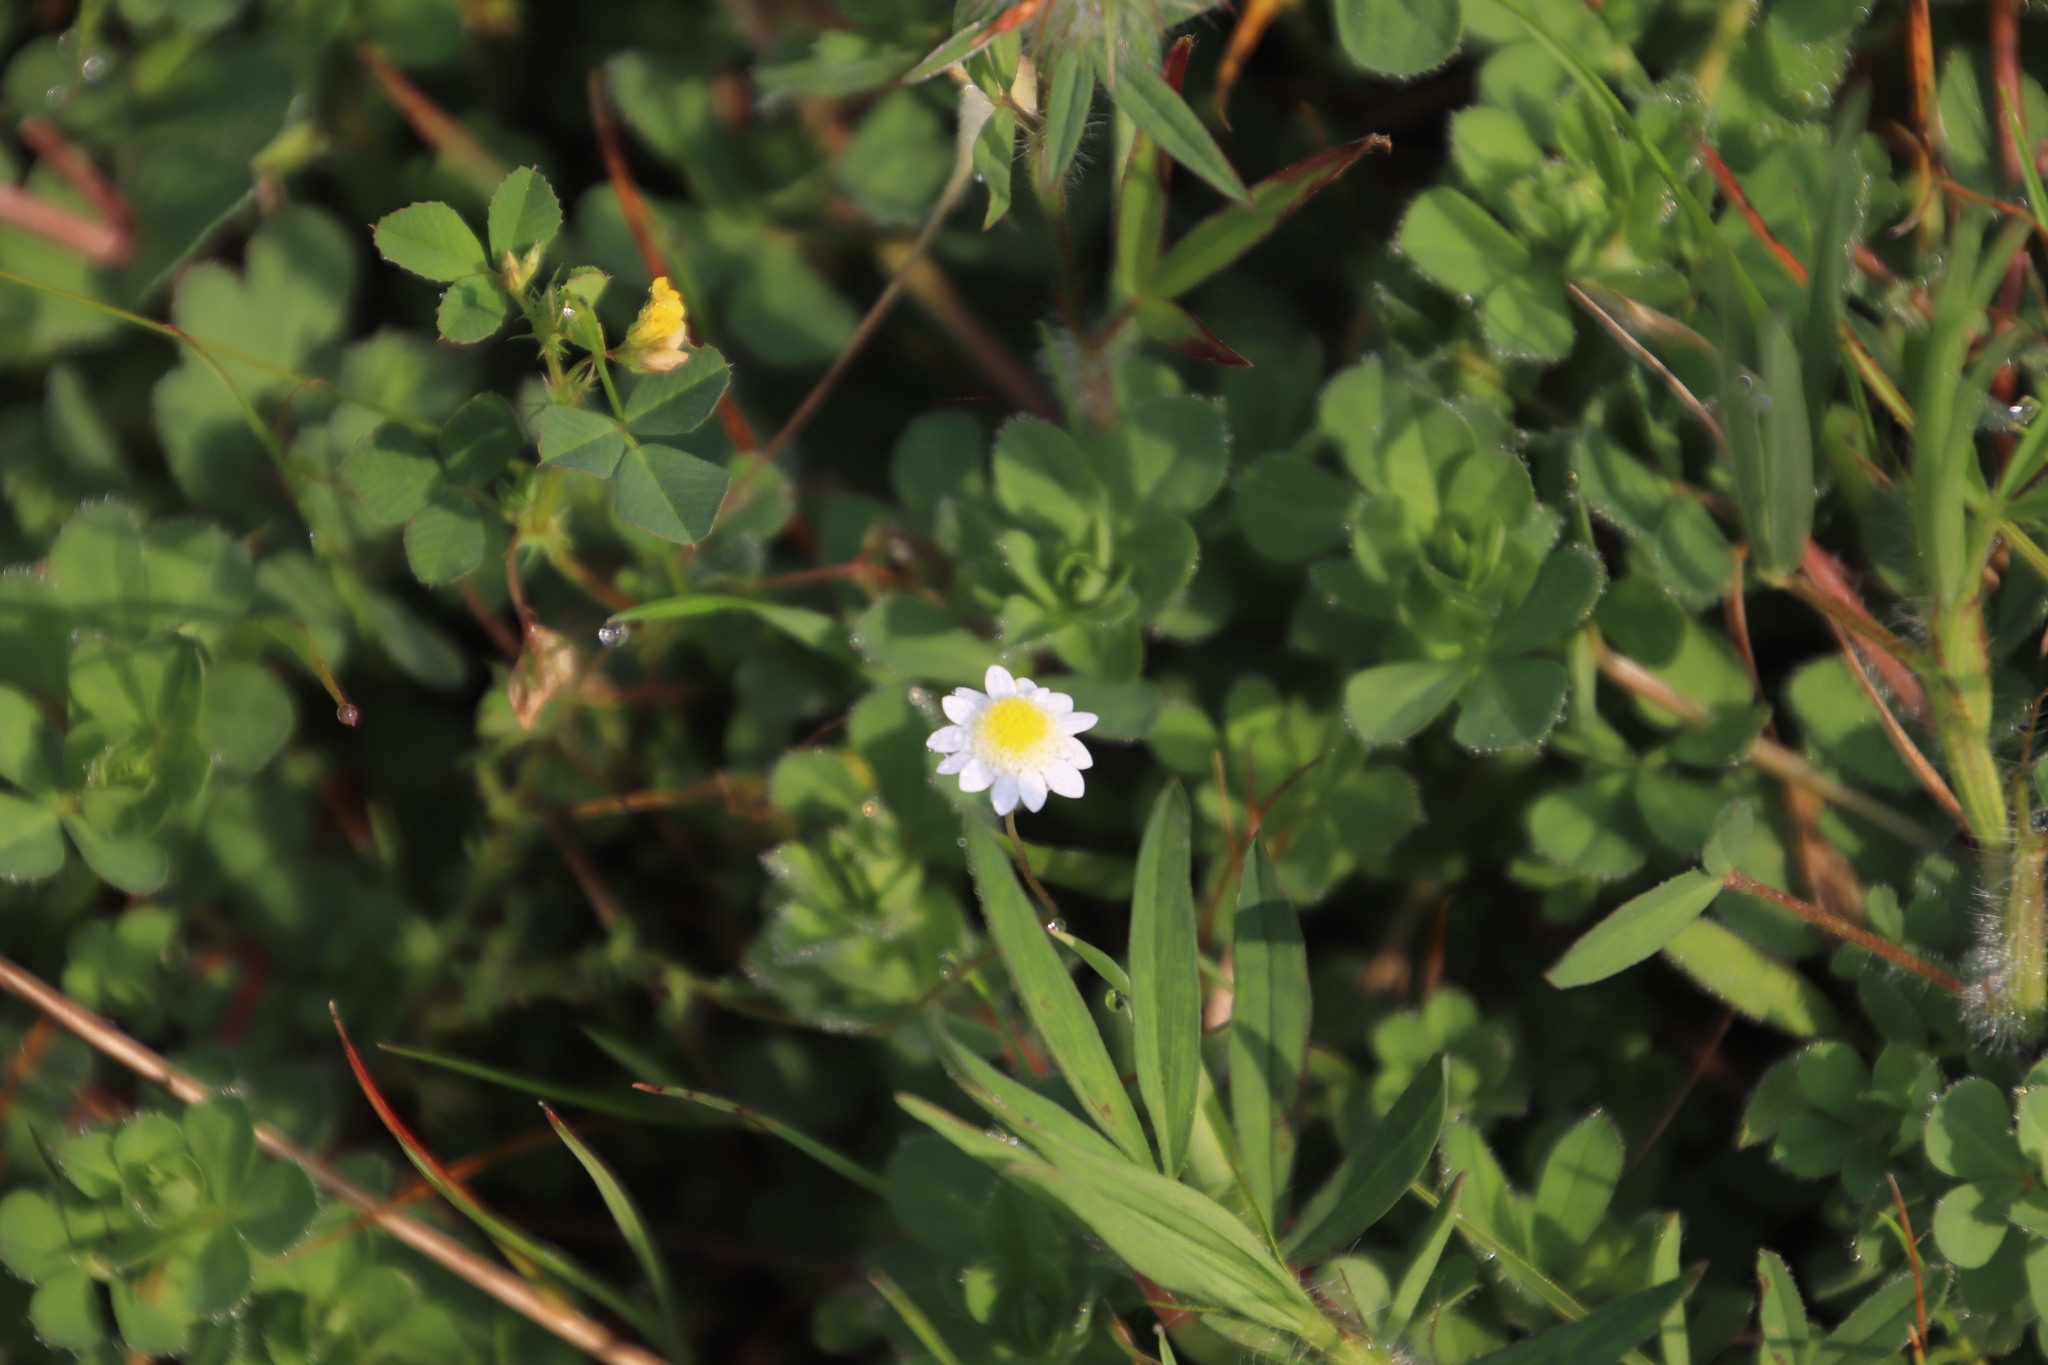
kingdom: Plantae
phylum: Tracheophyta
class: Magnoliopsida
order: Asterales
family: Asteraceae
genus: Cotula
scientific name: Cotula turbinata
